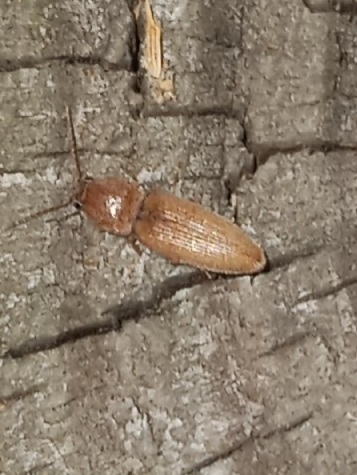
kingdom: Animalia
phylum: Arthropoda
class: Insecta
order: Coleoptera
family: Elateridae
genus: Monocrepidius
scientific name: Monocrepidius scissus
